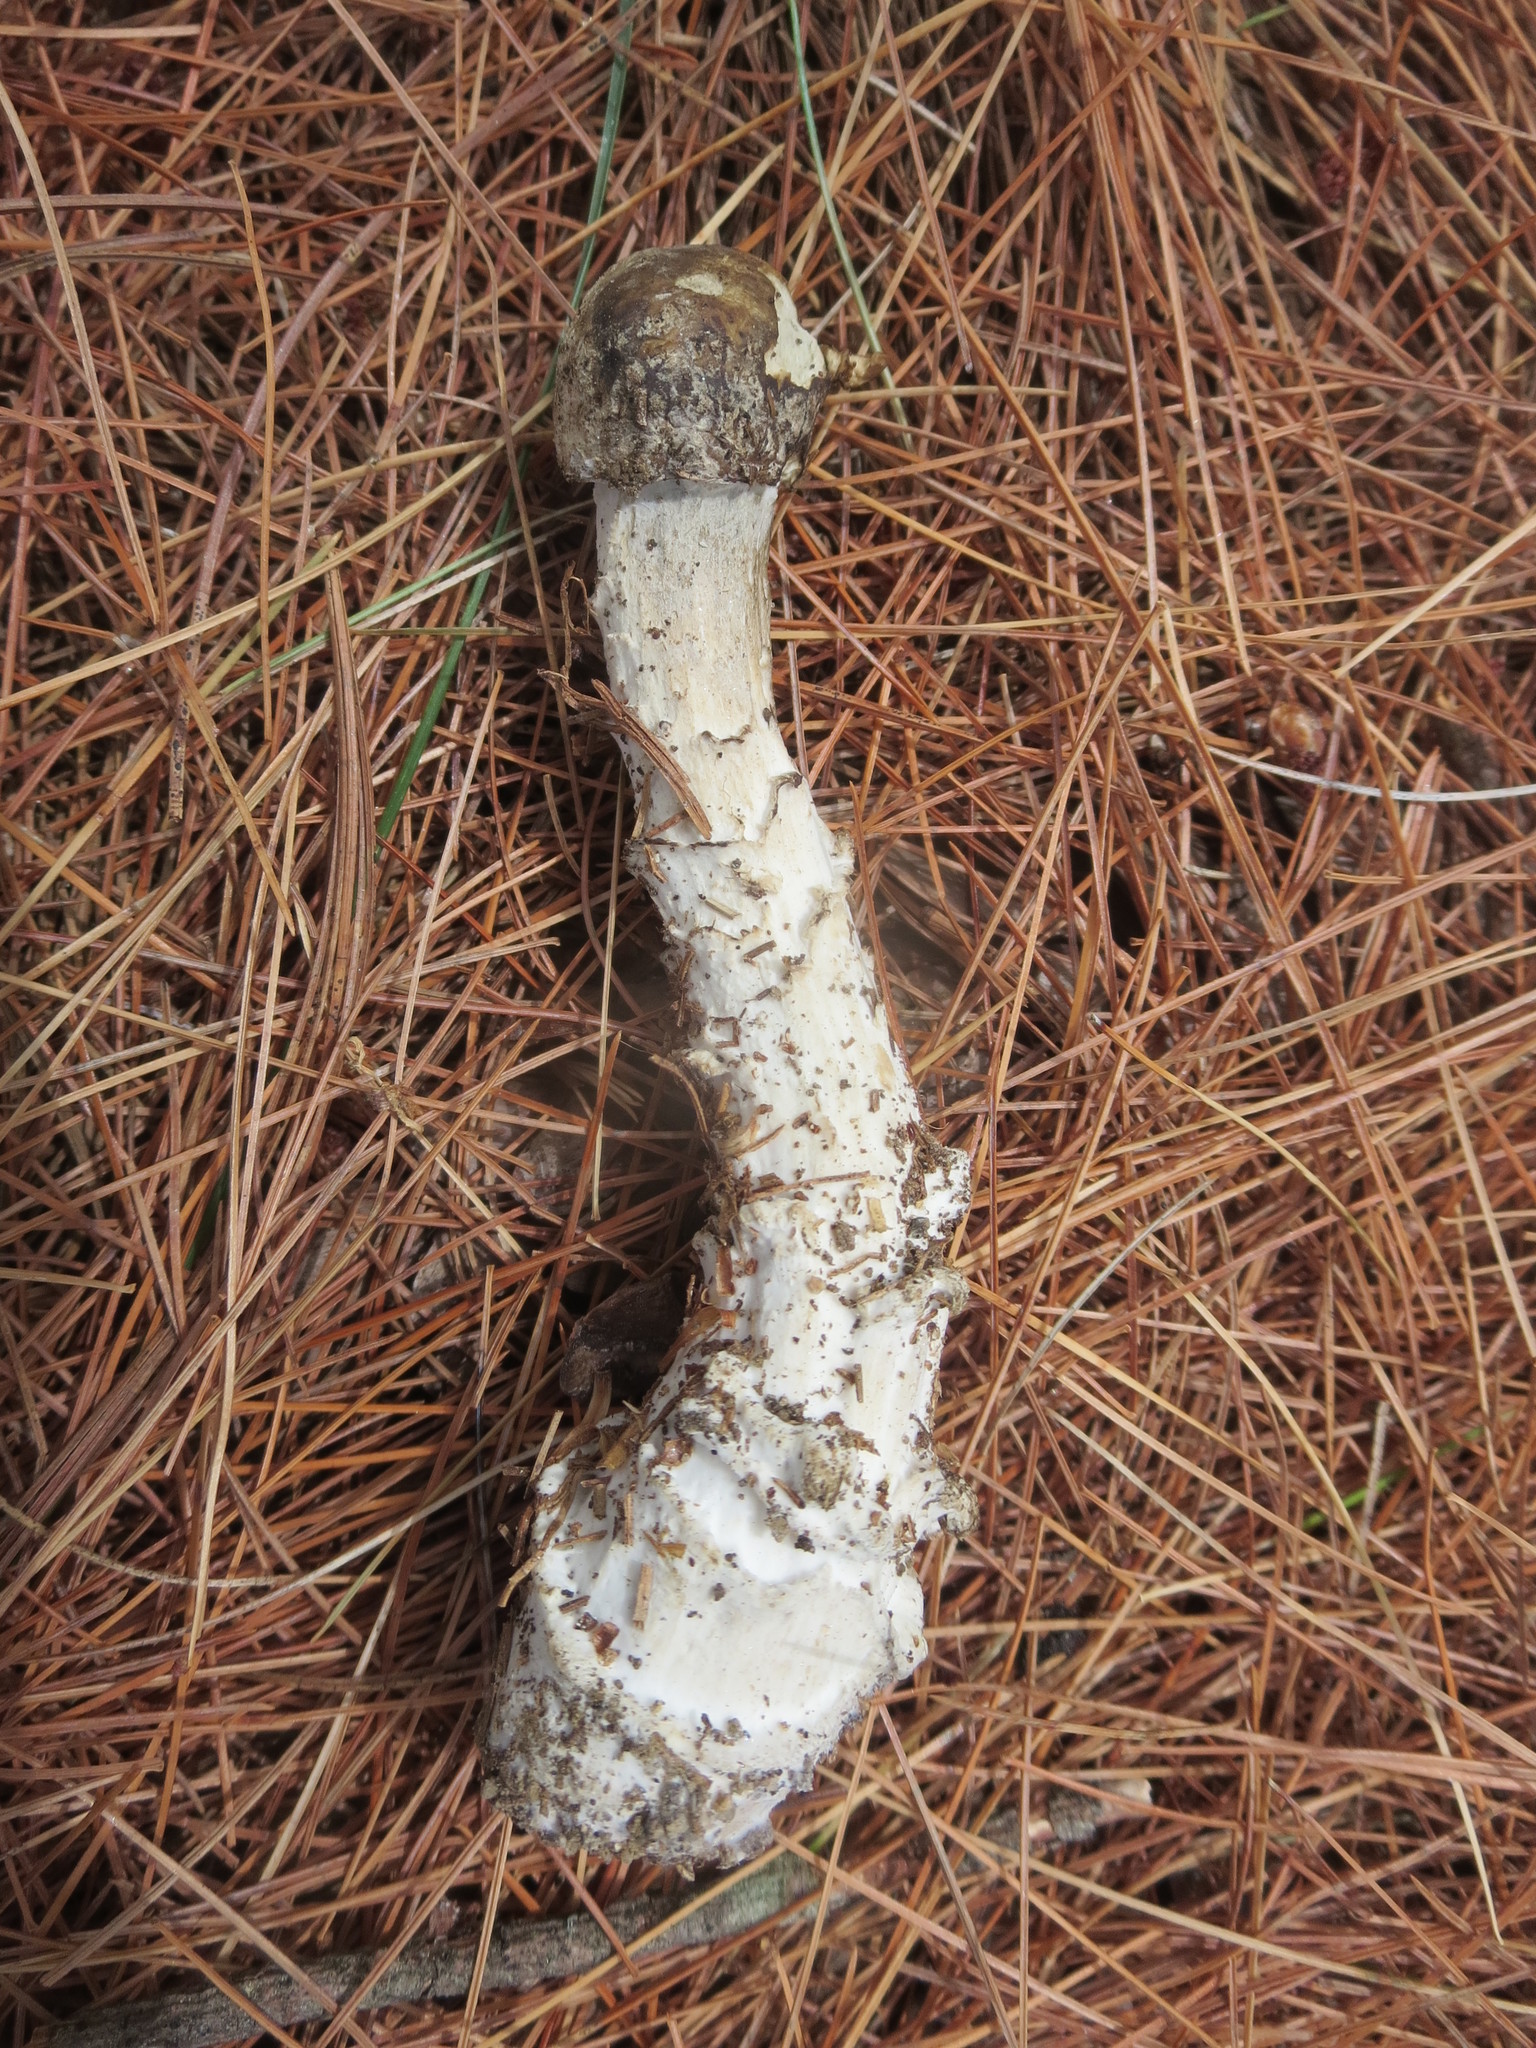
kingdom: Fungi
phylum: Ascomycota
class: Sordariomycetes
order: Hypocreales
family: Hypocreaceae
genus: Hypomyces
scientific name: Hypomyces hyalinus
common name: Amanita mold
